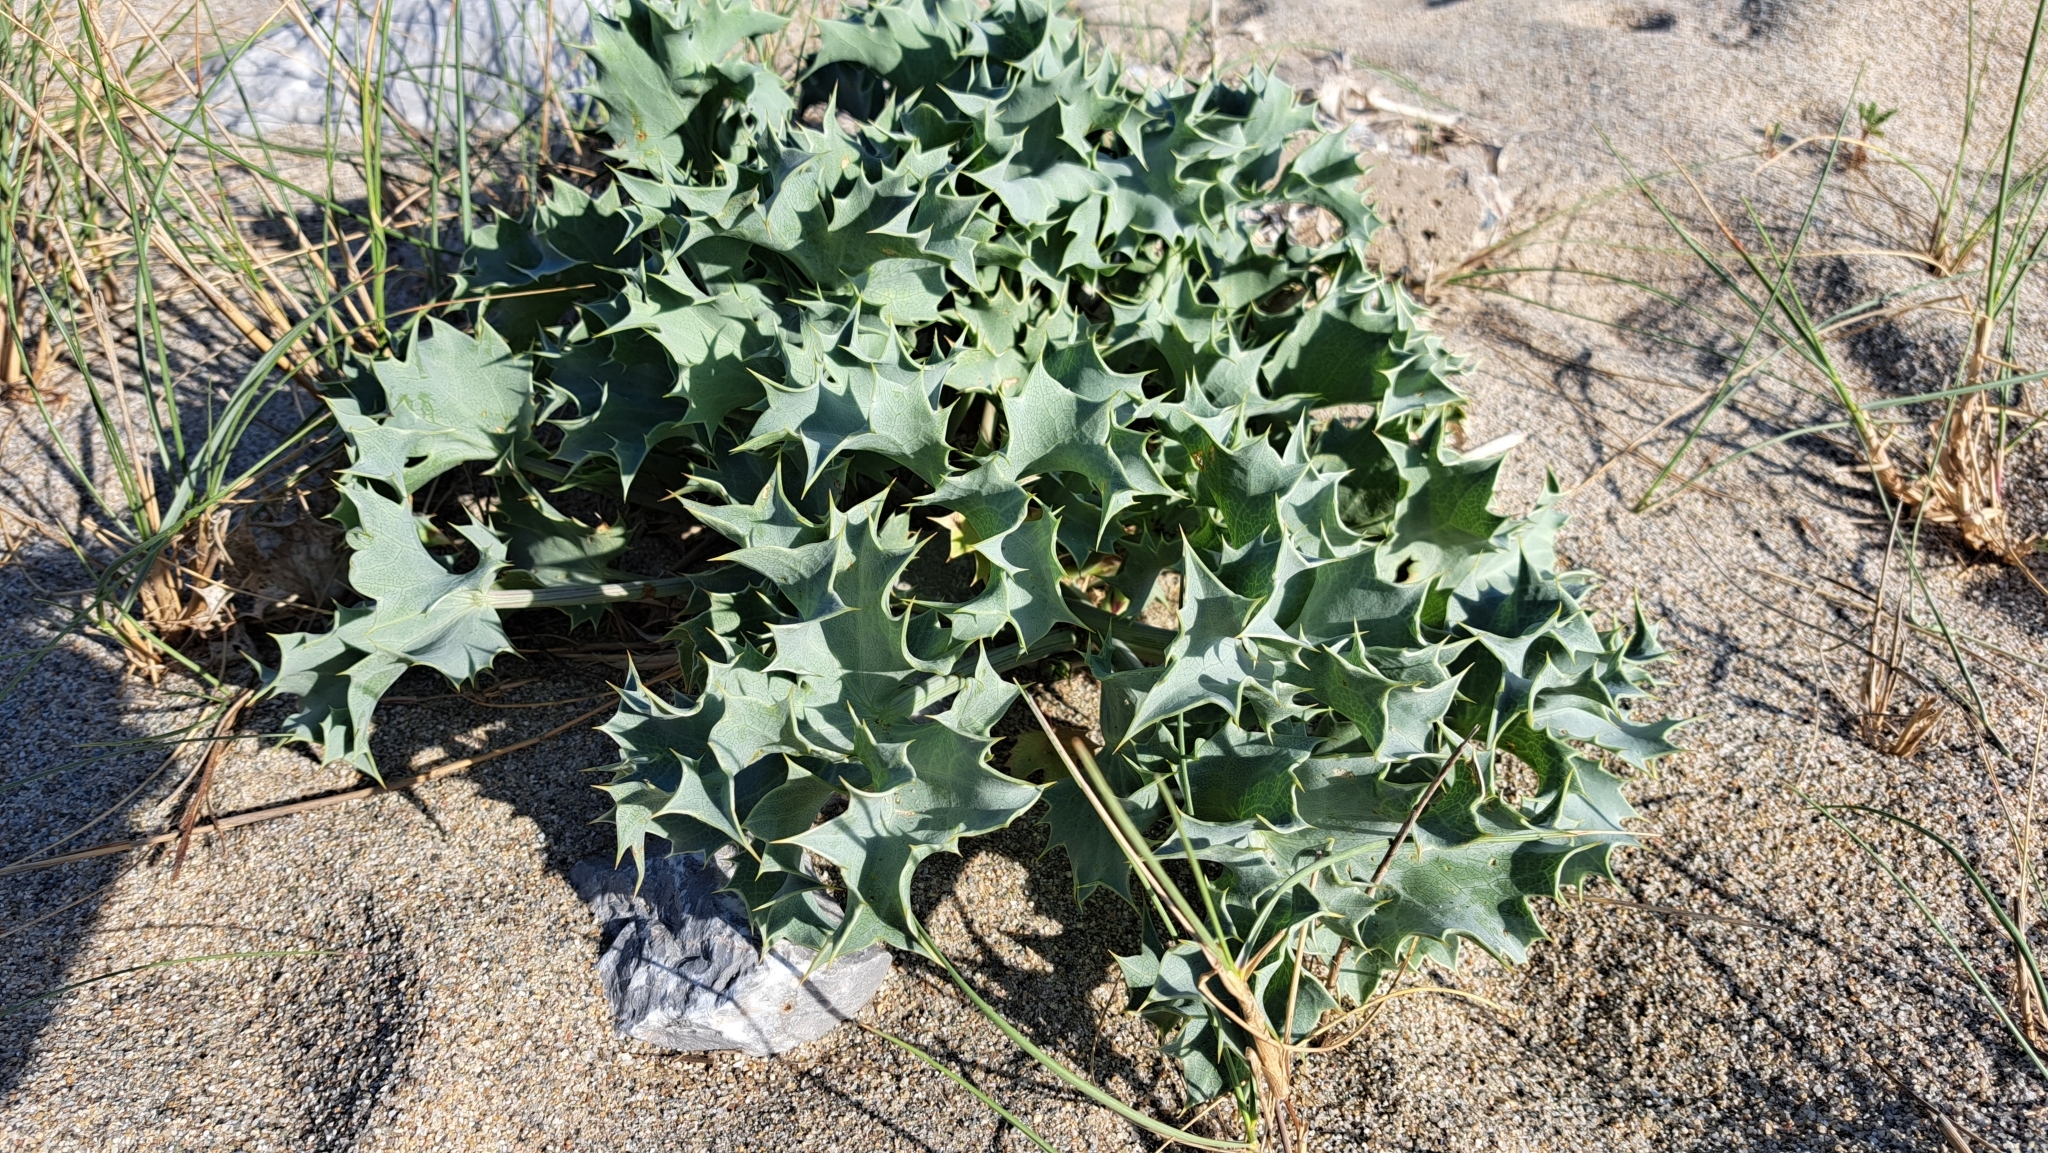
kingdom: Plantae
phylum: Tracheophyta
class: Magnoliopsida
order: Apiales
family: Apiaceae
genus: Eryngium
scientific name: Eryngium maritimum
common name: Sea-holly
